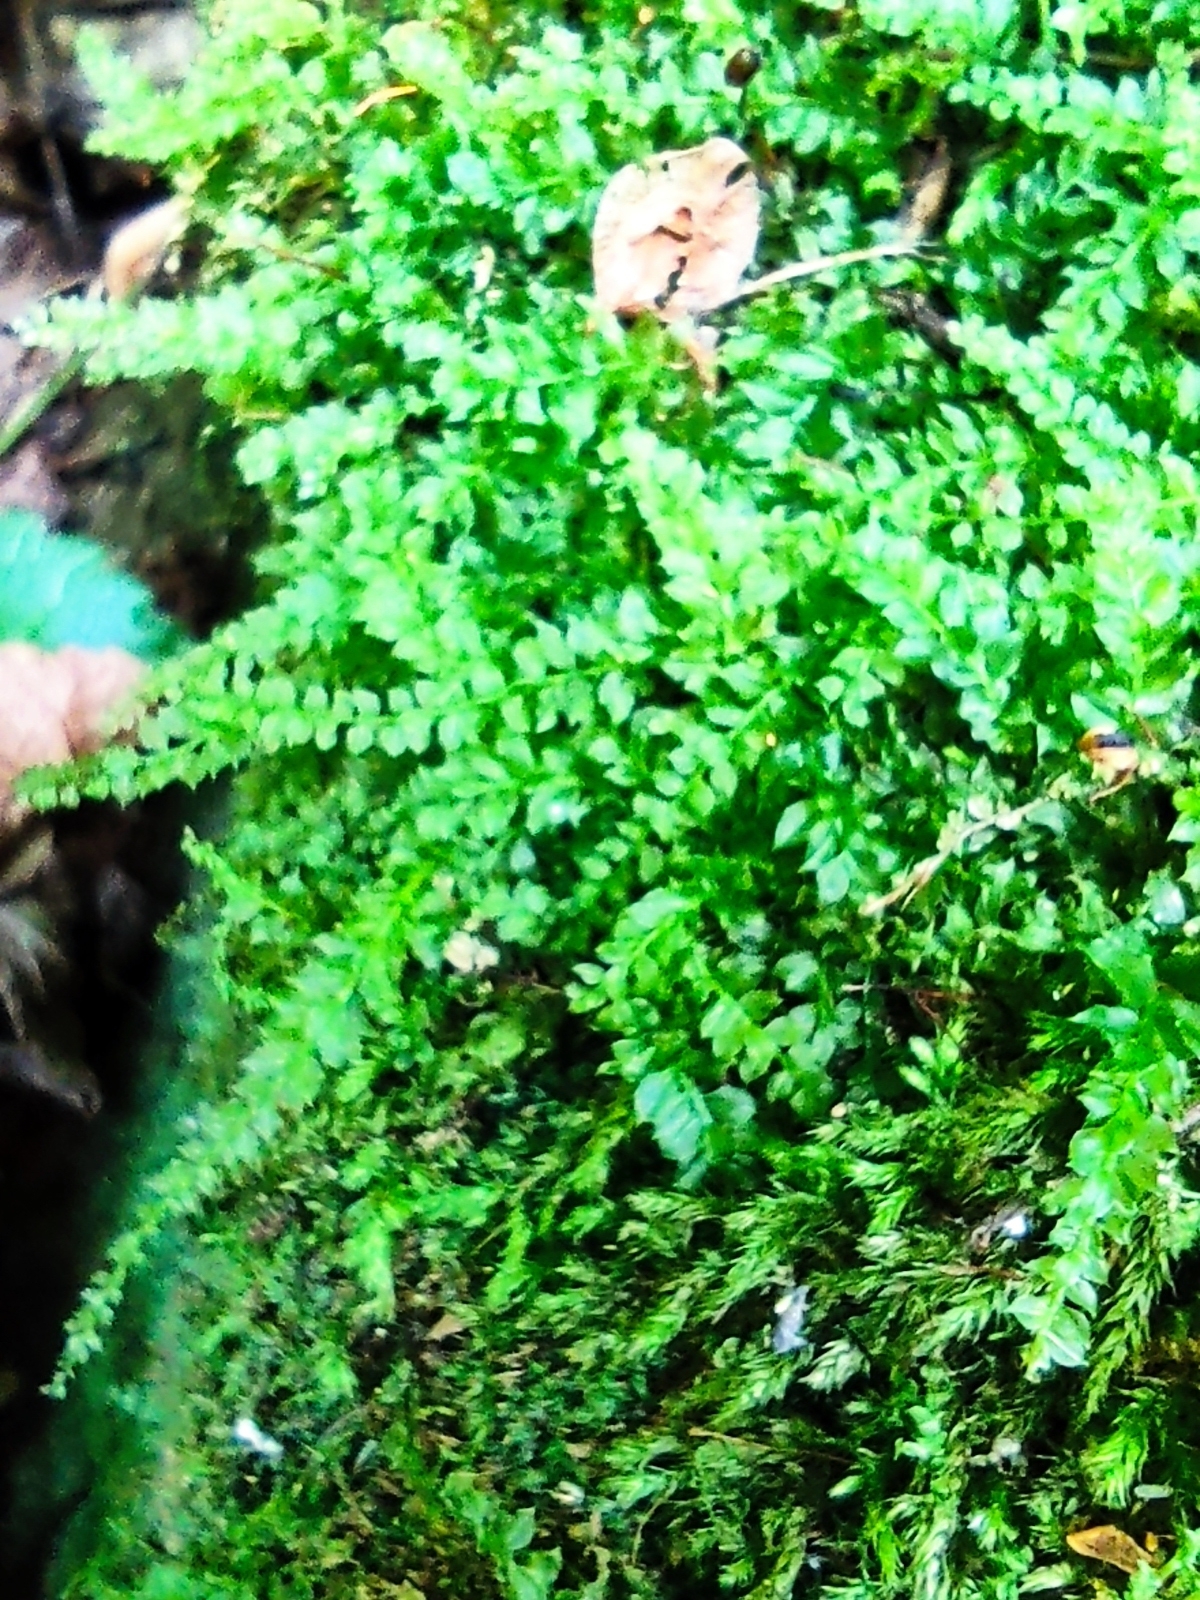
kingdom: Plantae
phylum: Bryophyta
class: Bryopsida
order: Bryales
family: Mniaceae
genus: Plagiomnium
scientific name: Plagiomnium cuspidatum
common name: Woodsy leafy moss
